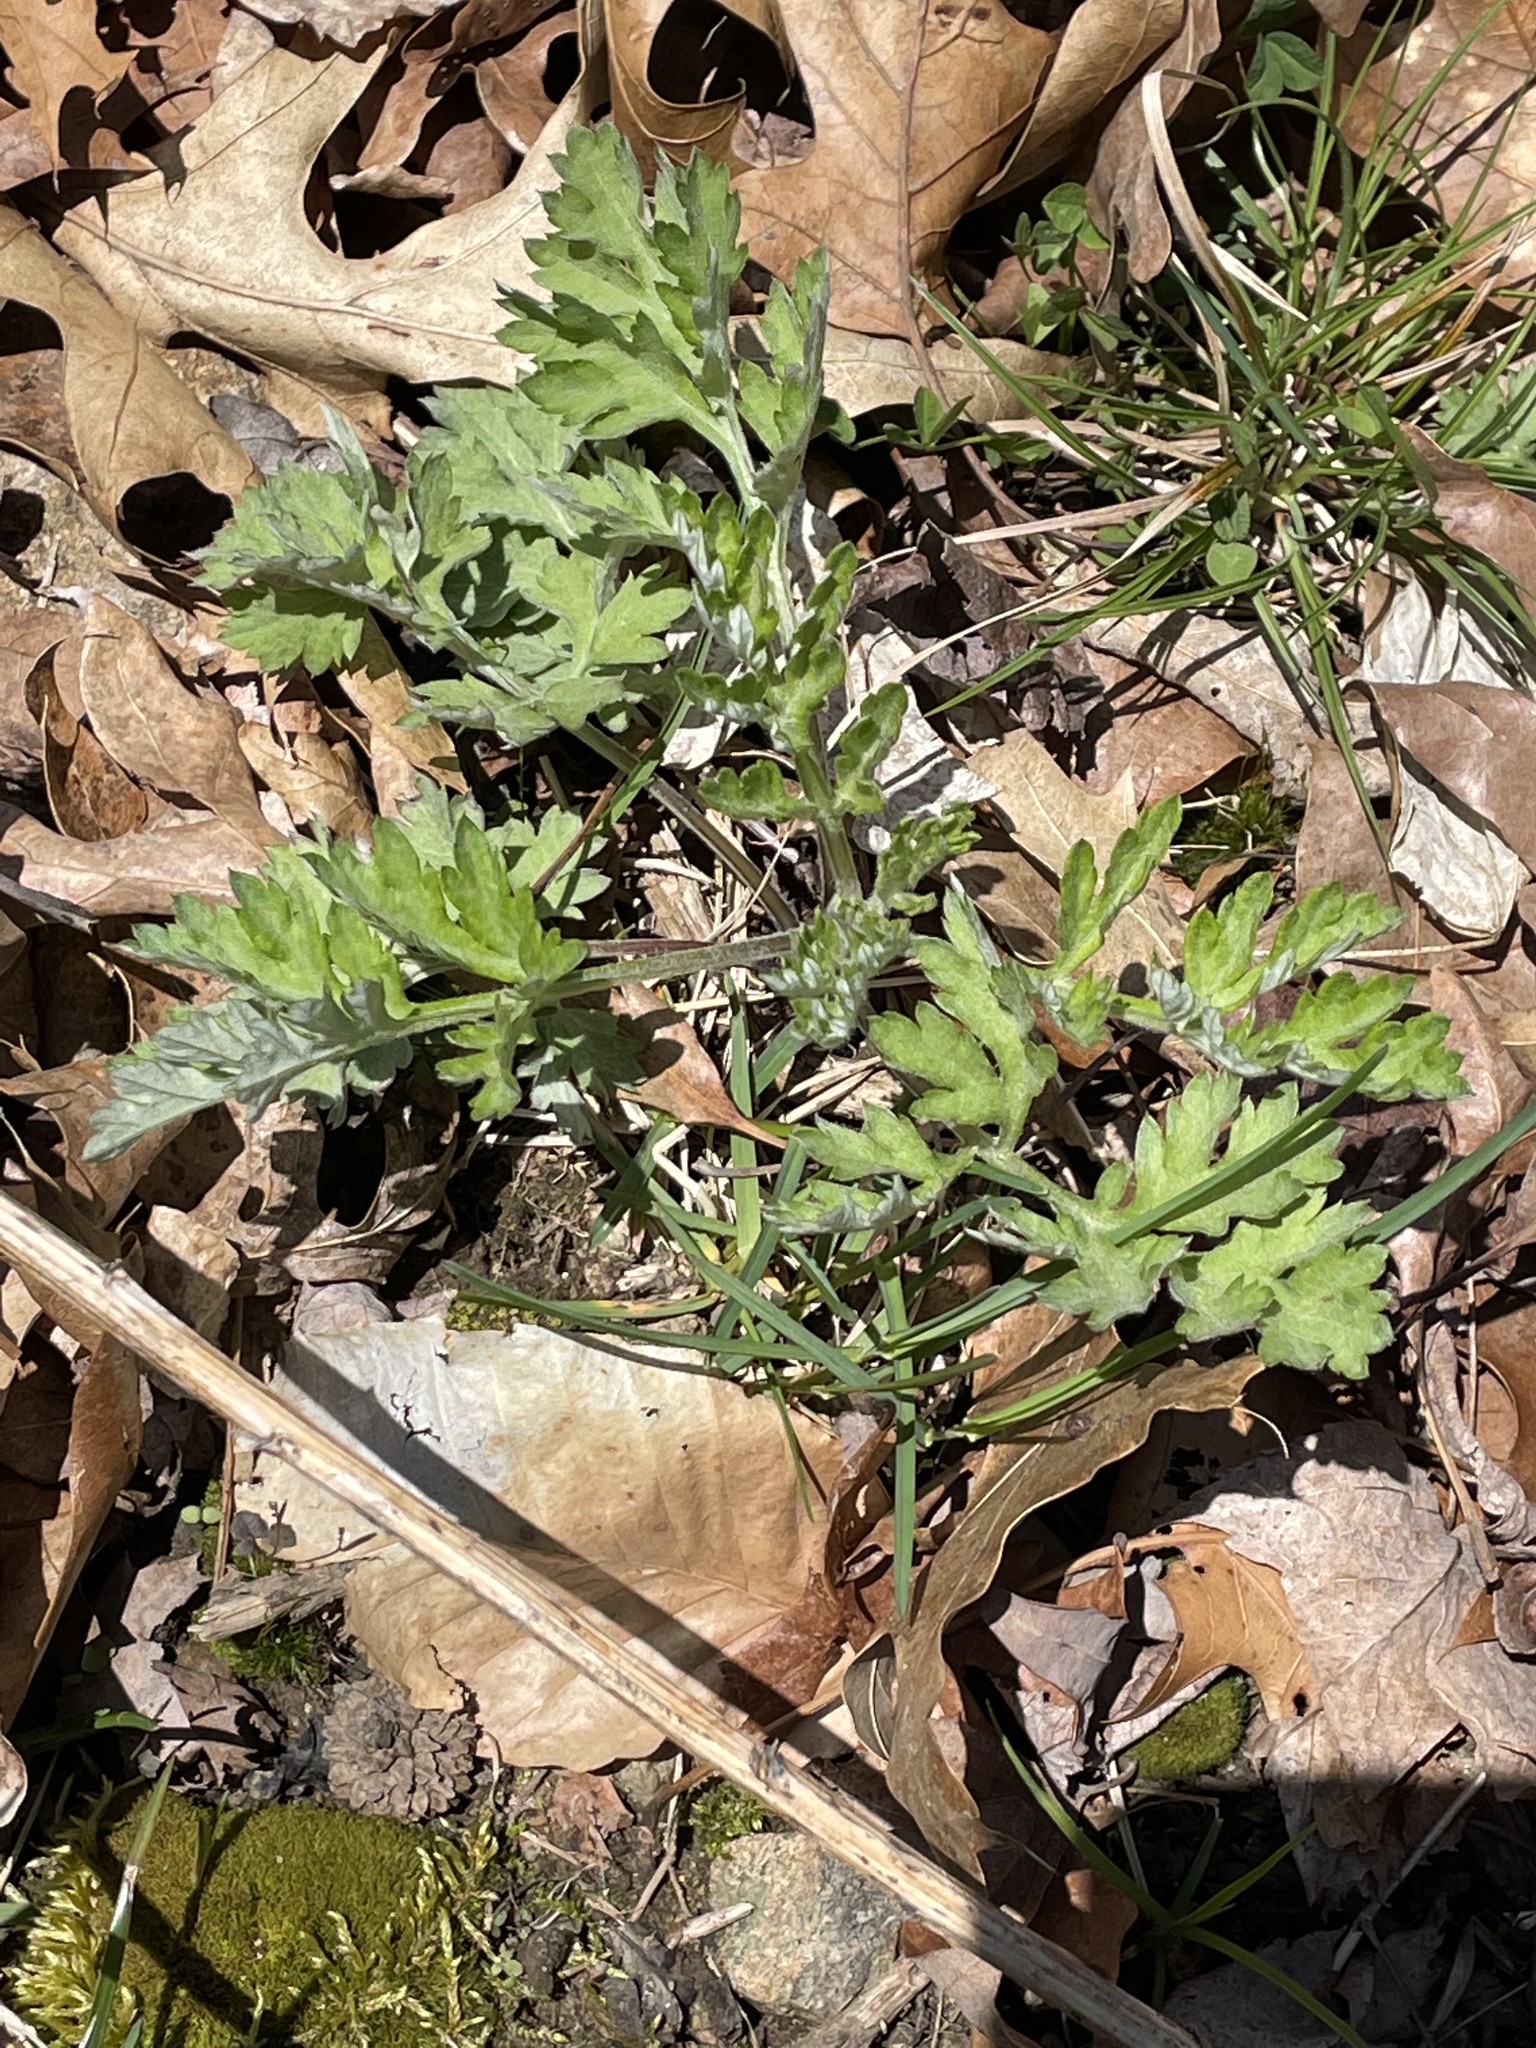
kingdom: Plantae
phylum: Tracheophyta
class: Magnoliopsida
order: Asterales
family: Asteraceae
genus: Artemisia
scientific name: Artemisia vulgaris
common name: Mugwort
